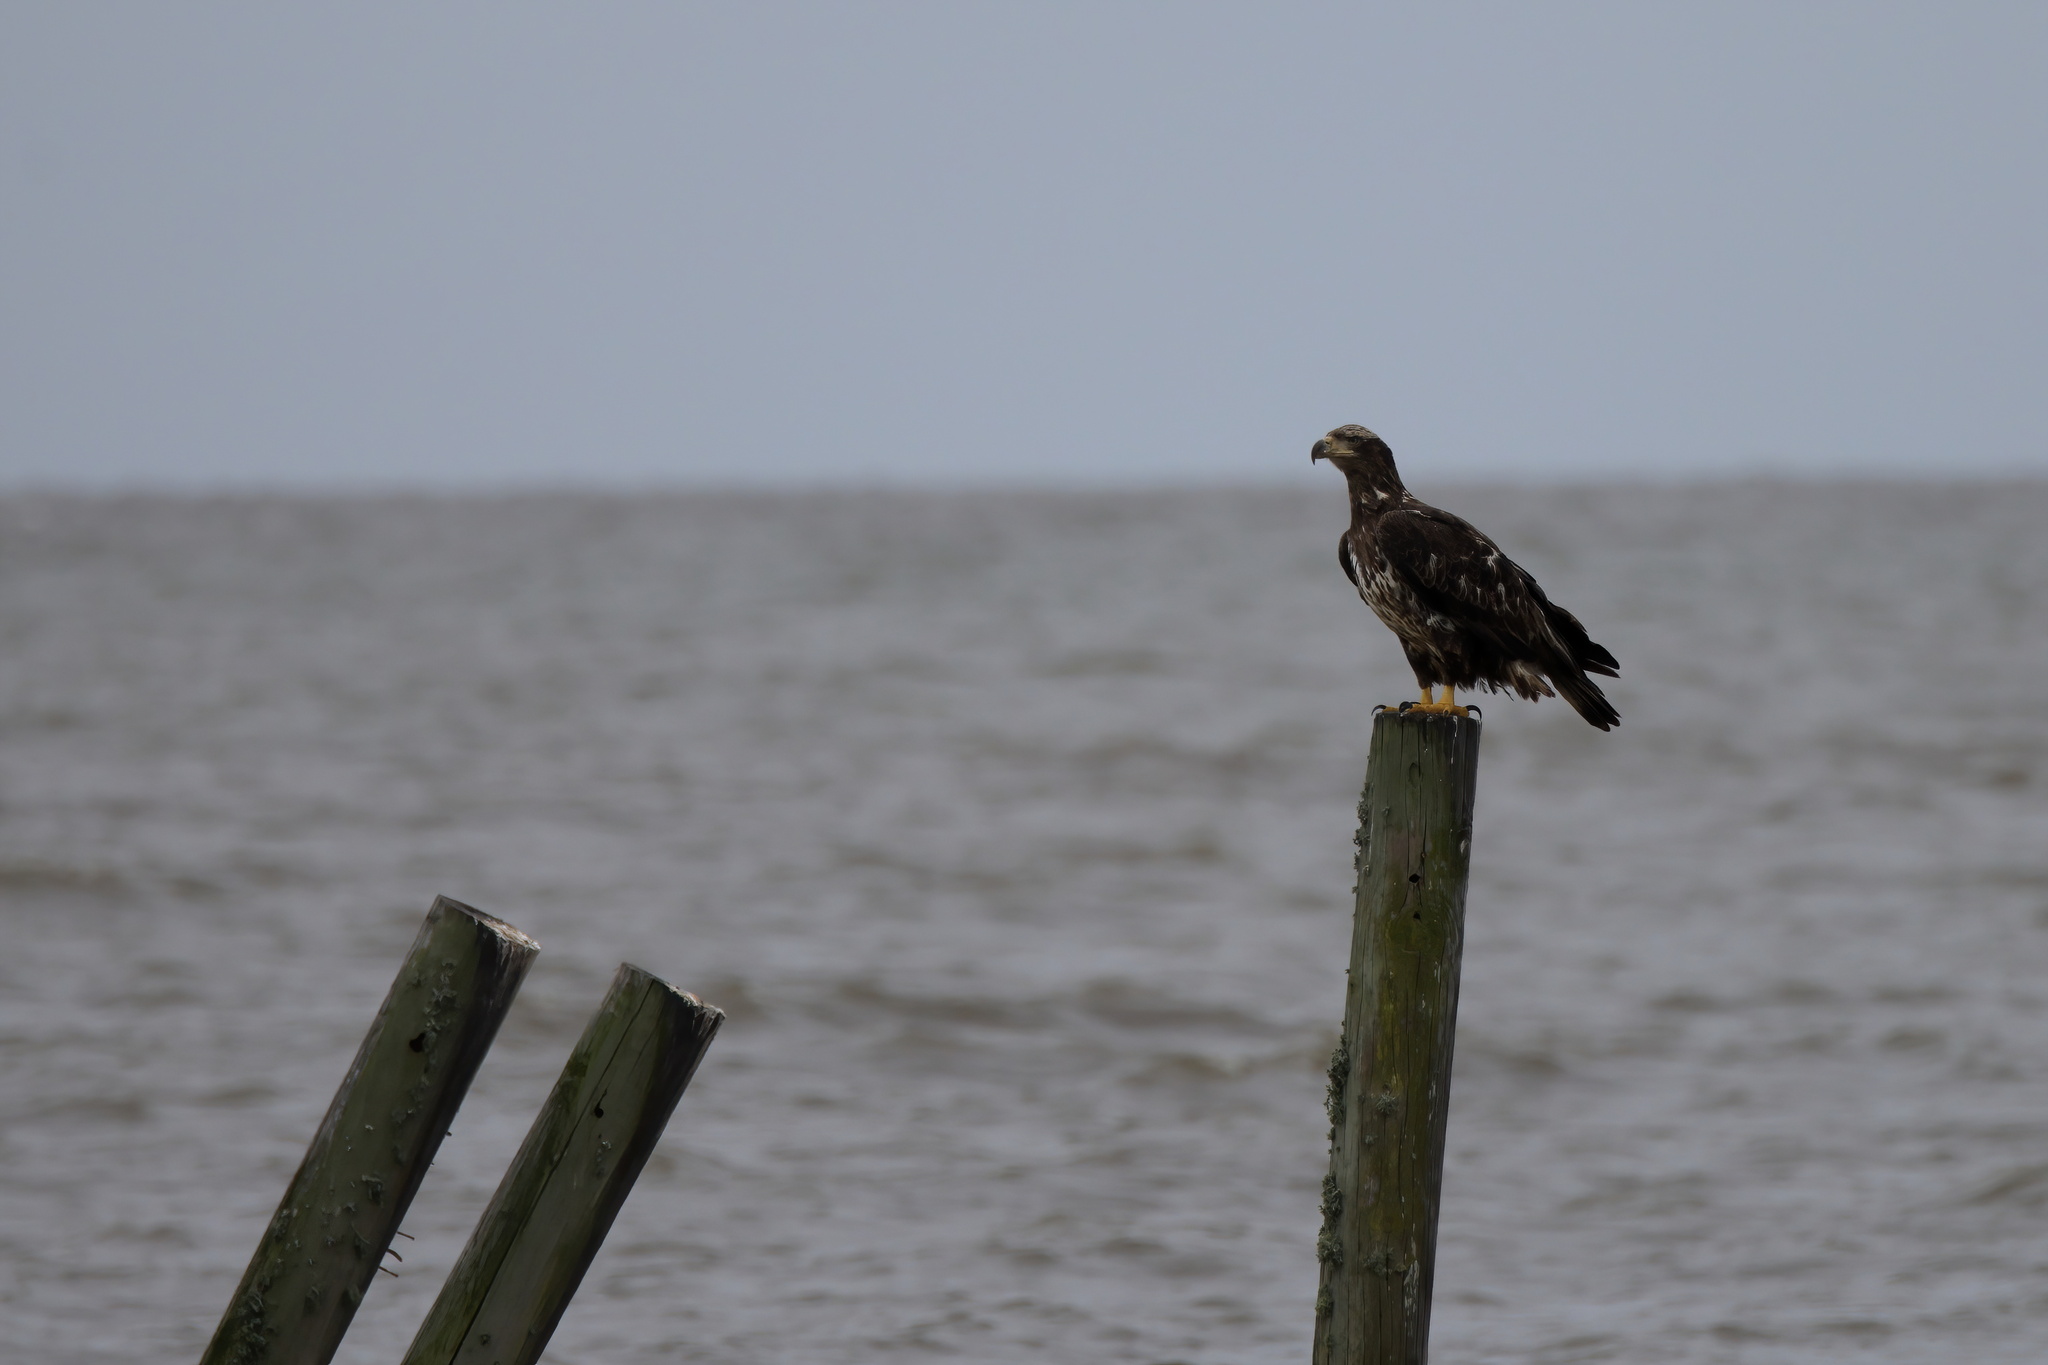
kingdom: Animalia
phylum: Chordata
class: Aves
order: Accipitriformes
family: Accipitridae
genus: Haliaeetus
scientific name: Haliaeetus leucocephalus
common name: Bald eagle
